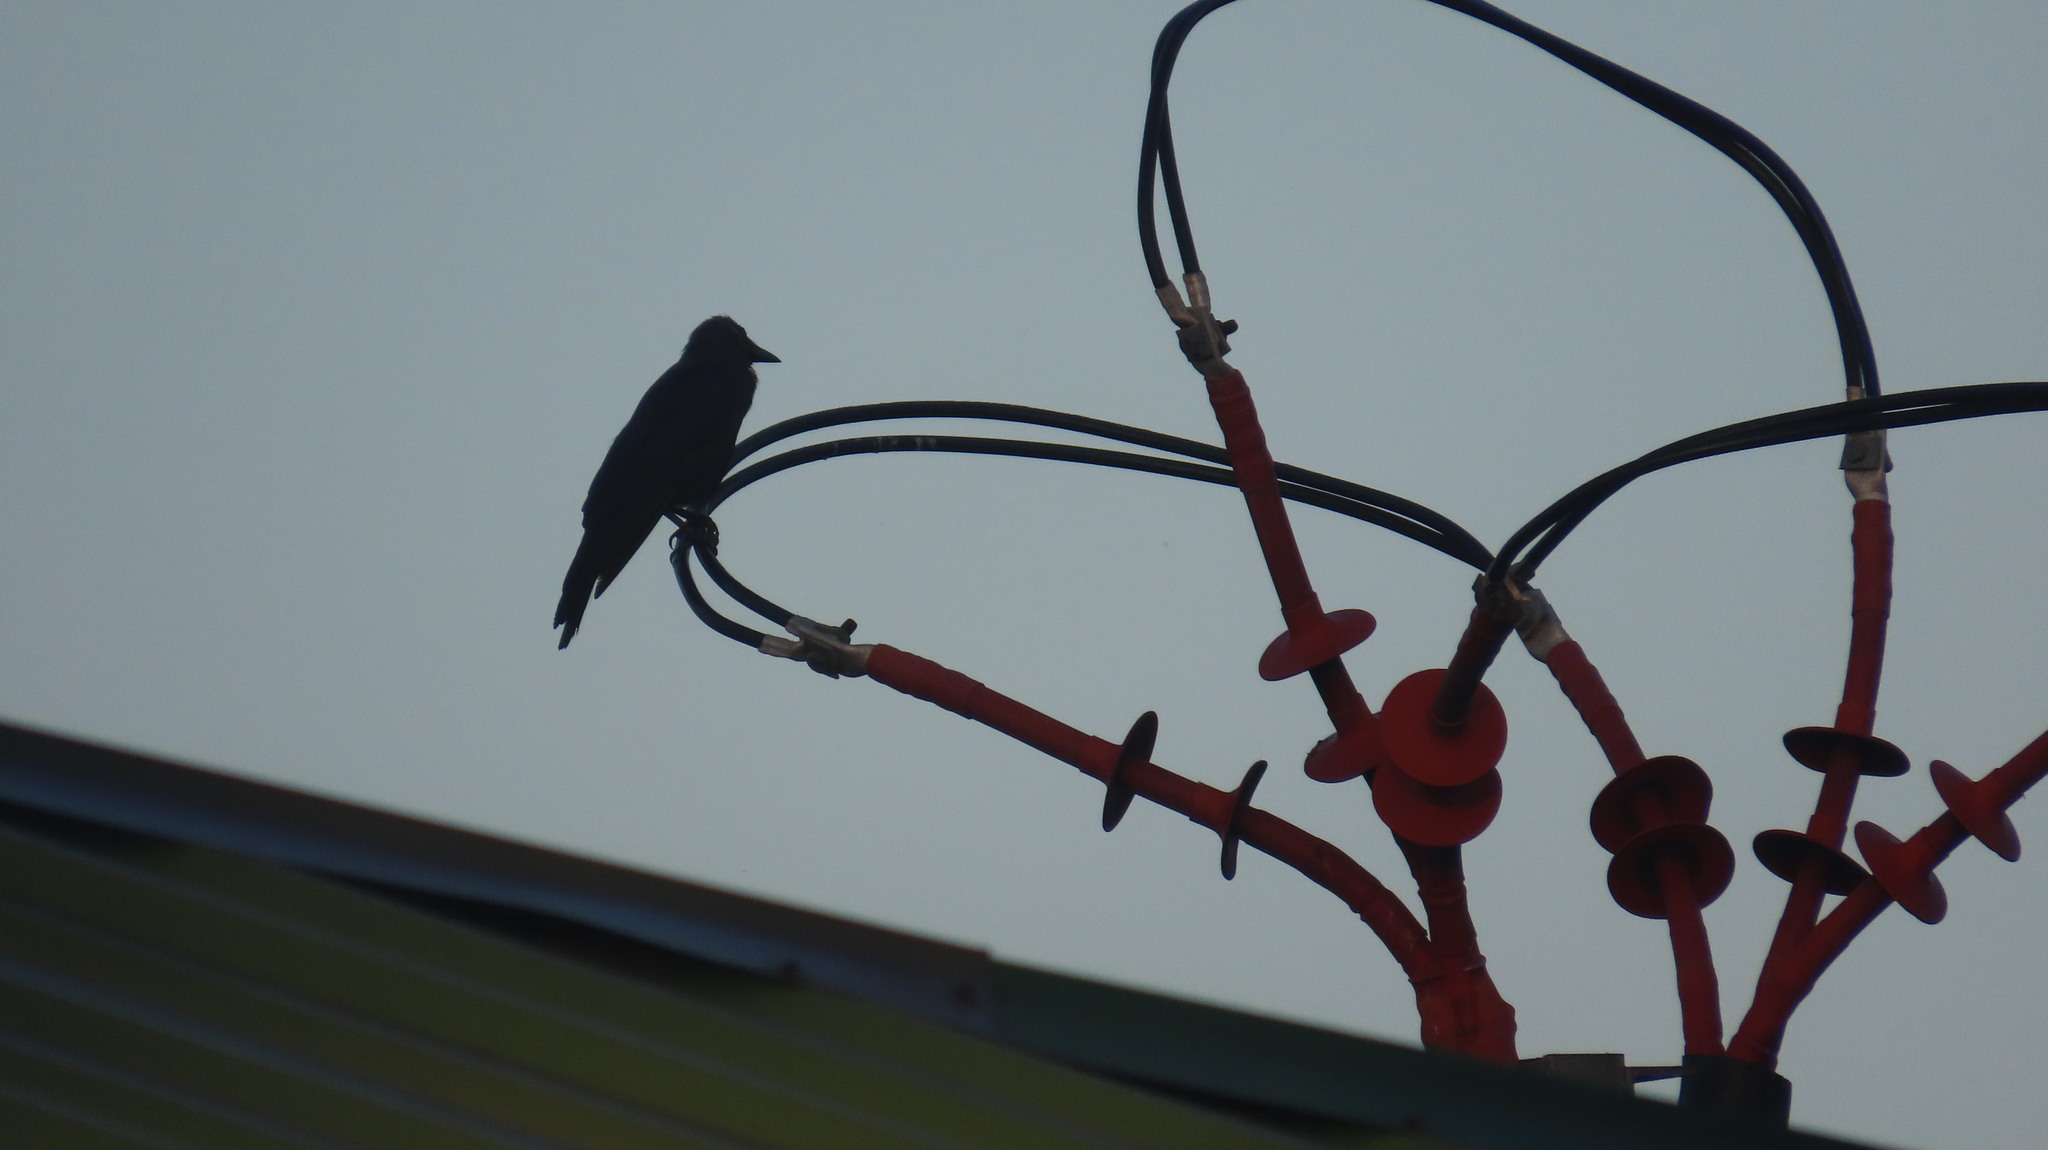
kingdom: Animalia
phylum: Chordata
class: Aves
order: Passeriformes
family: Corvidae
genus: Corvus
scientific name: Corvus splendens
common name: House crow
